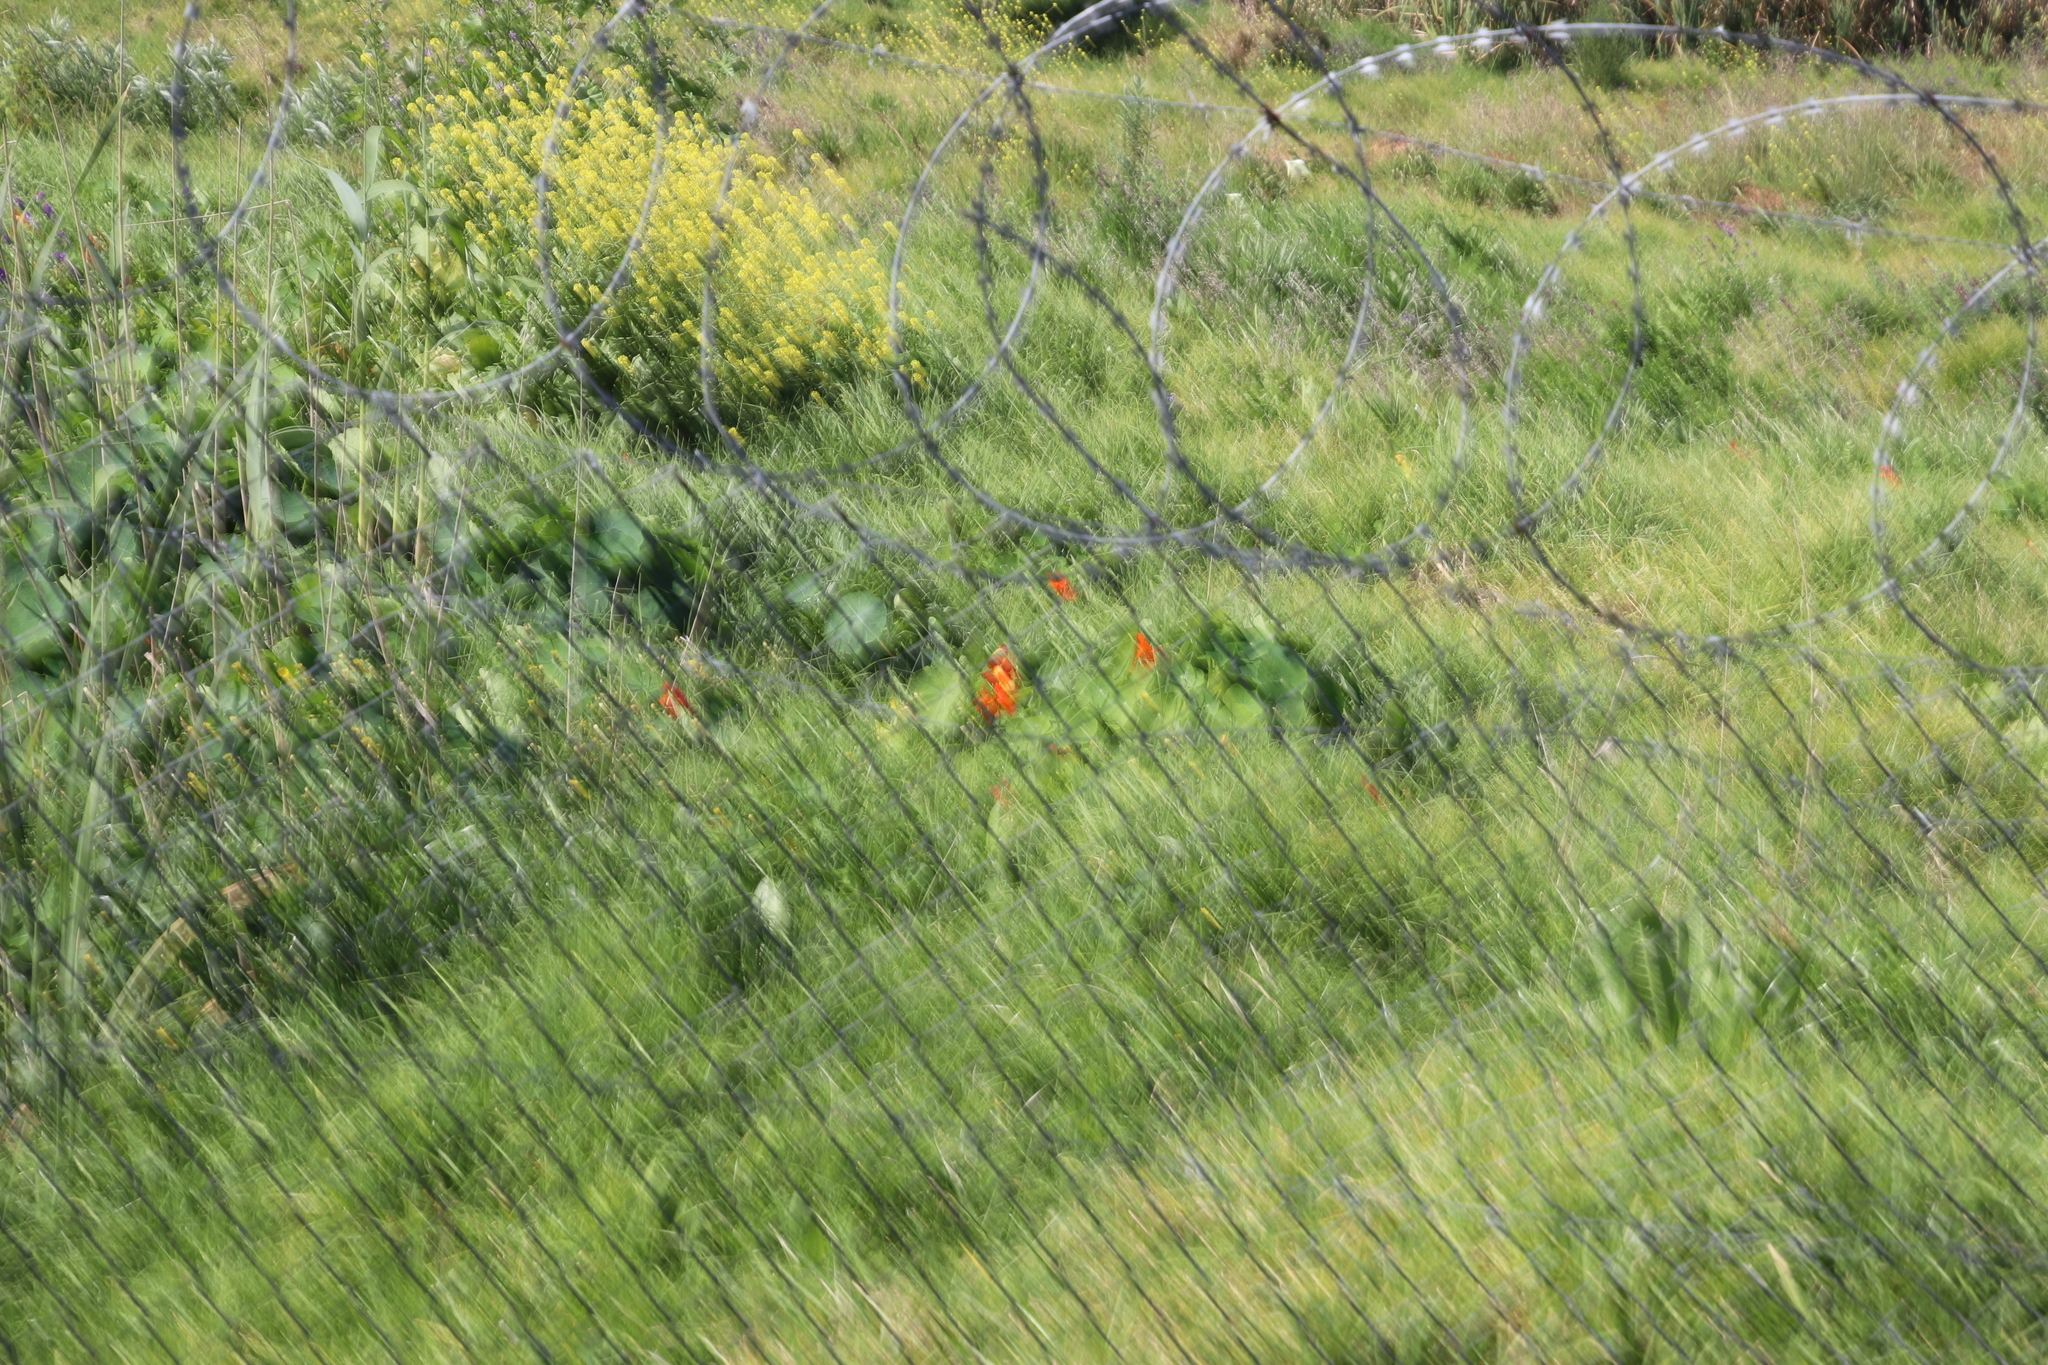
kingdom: Plantae
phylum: Tracheophyta
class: Magnoliopsida
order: Brassicales
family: Tropaeolaceae
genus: Tropaeolum
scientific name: Tropaeolum majus
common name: Nasturtium
